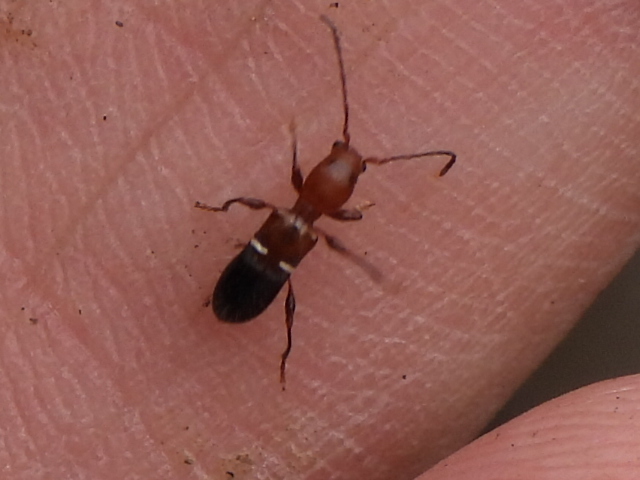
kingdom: Animalia
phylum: Arthropoda
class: Insecta
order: Coleoptera
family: Cerambycidae
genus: Euderces
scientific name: Euderces reichei
